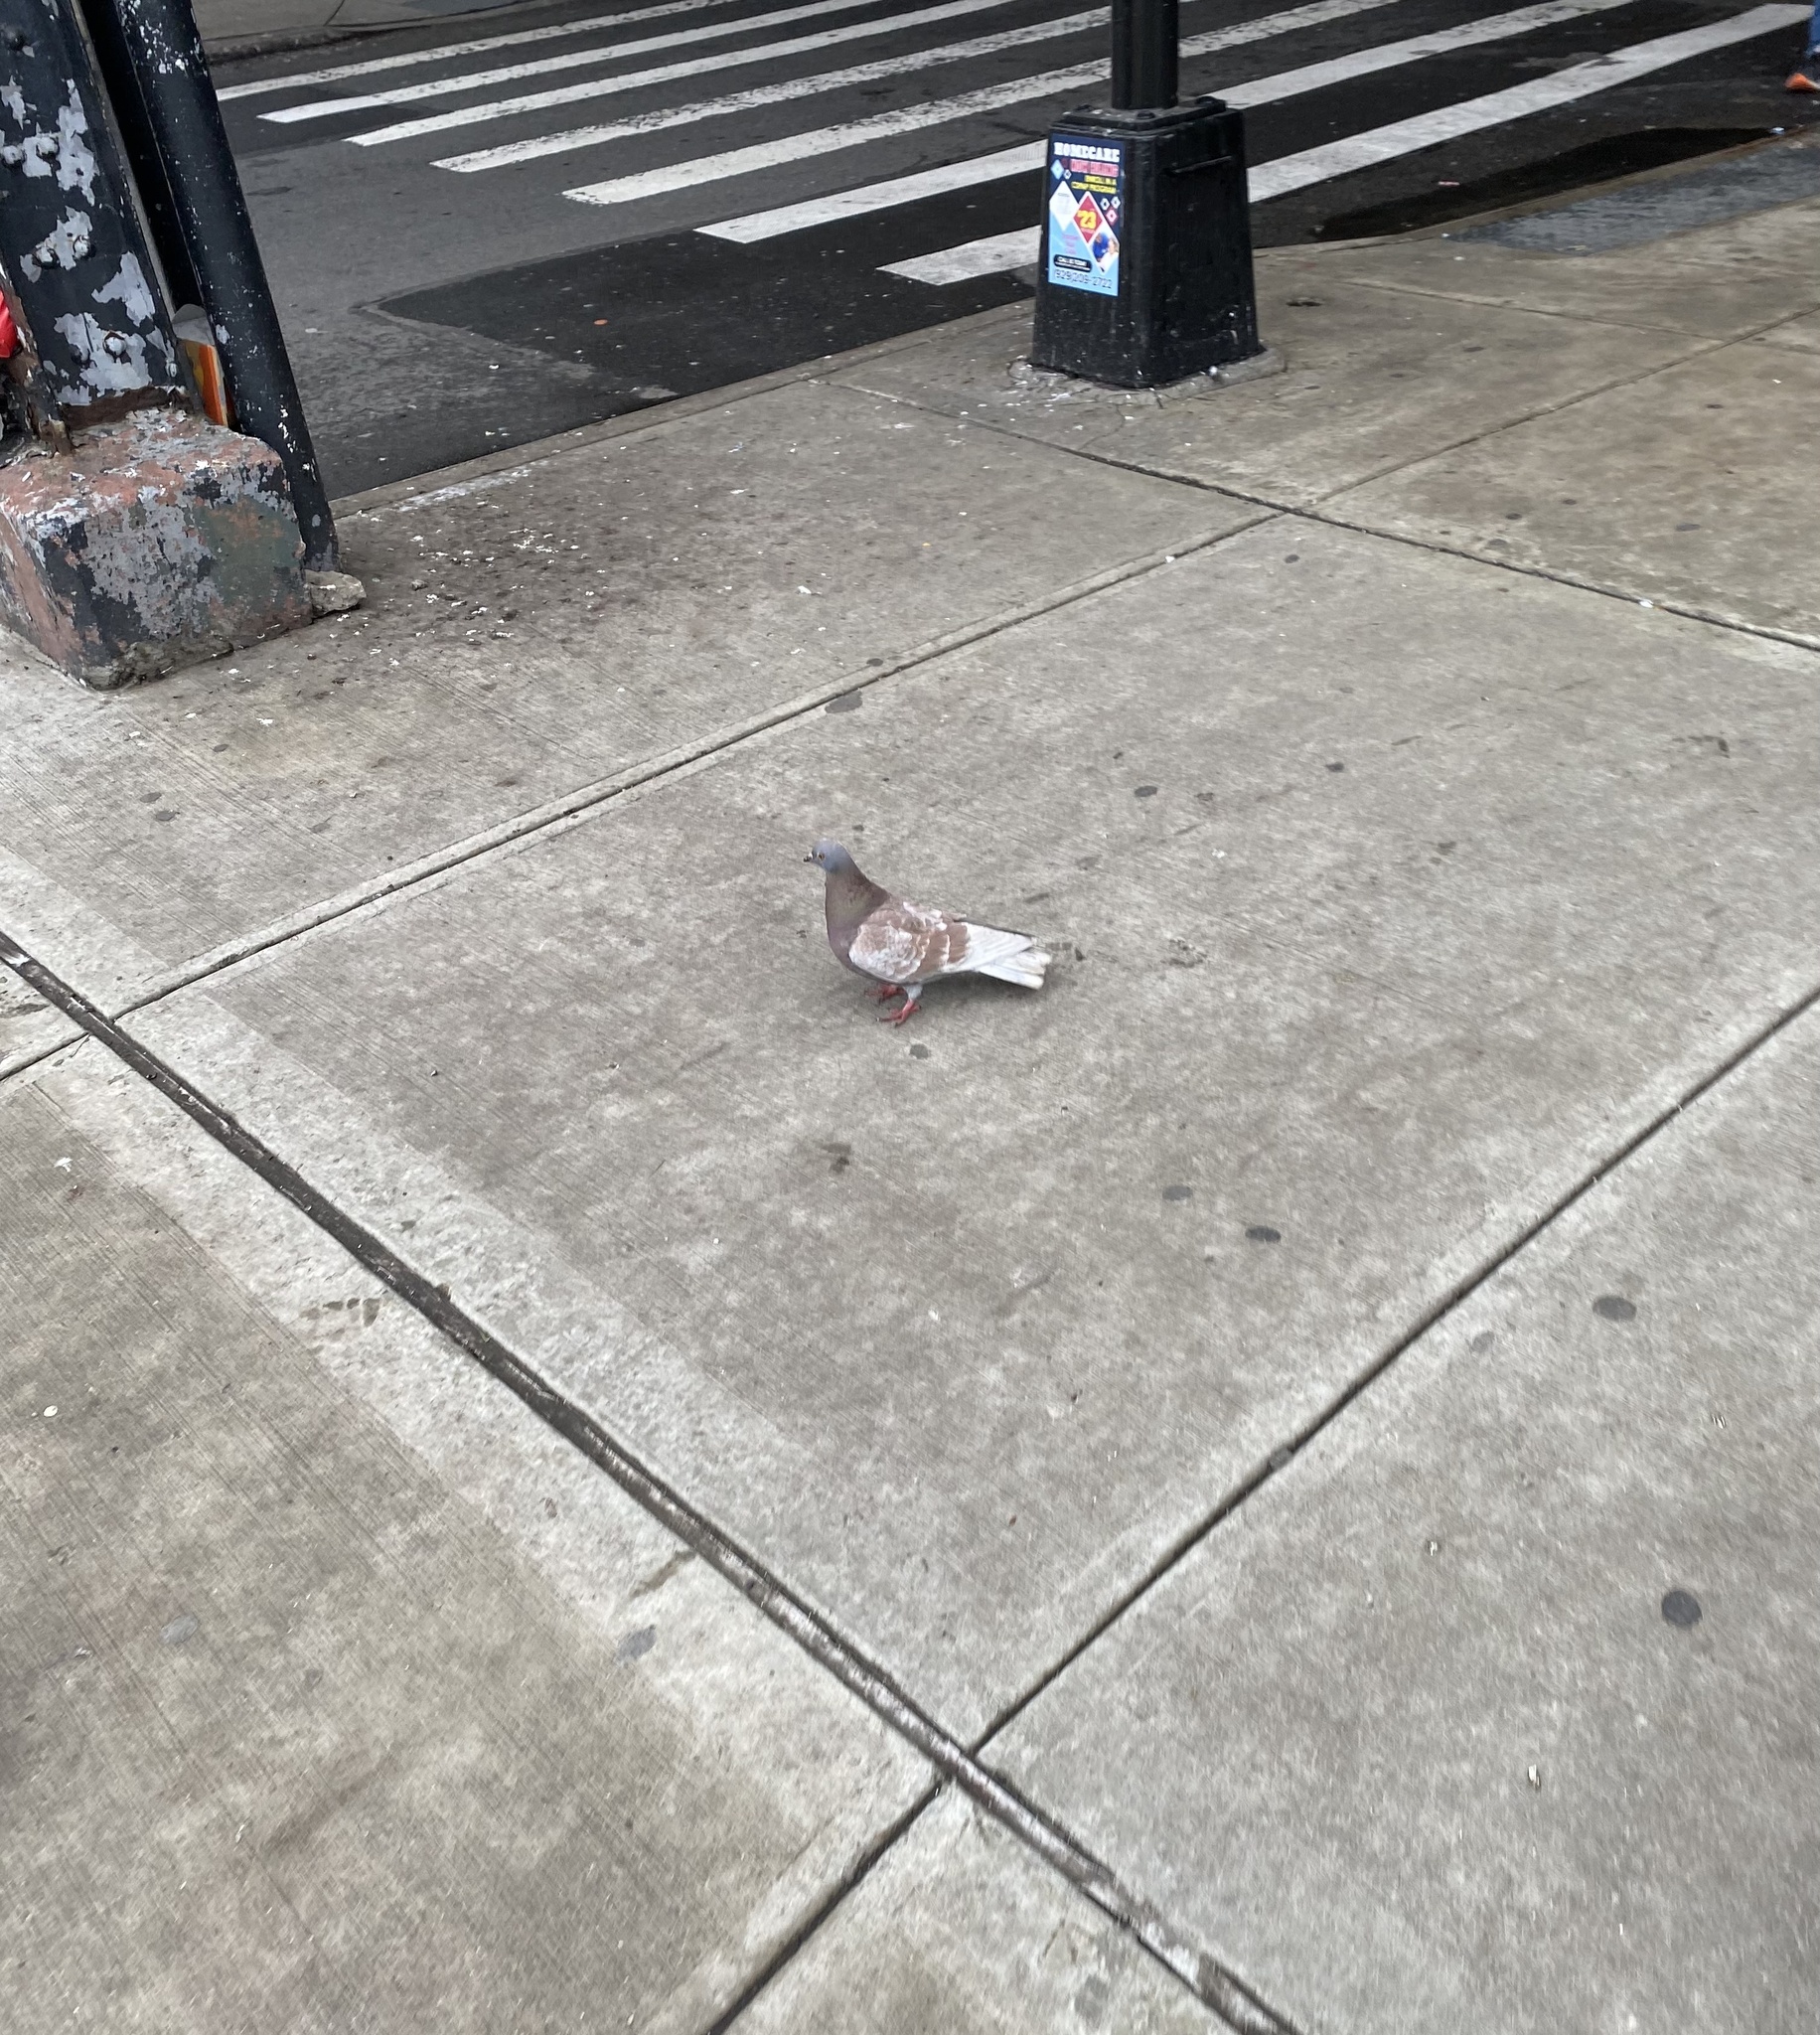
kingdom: Animalia
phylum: Chordata
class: Aves
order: Columbiformes
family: Columbidae
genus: Columba
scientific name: Columba livia
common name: Rock pigeon
